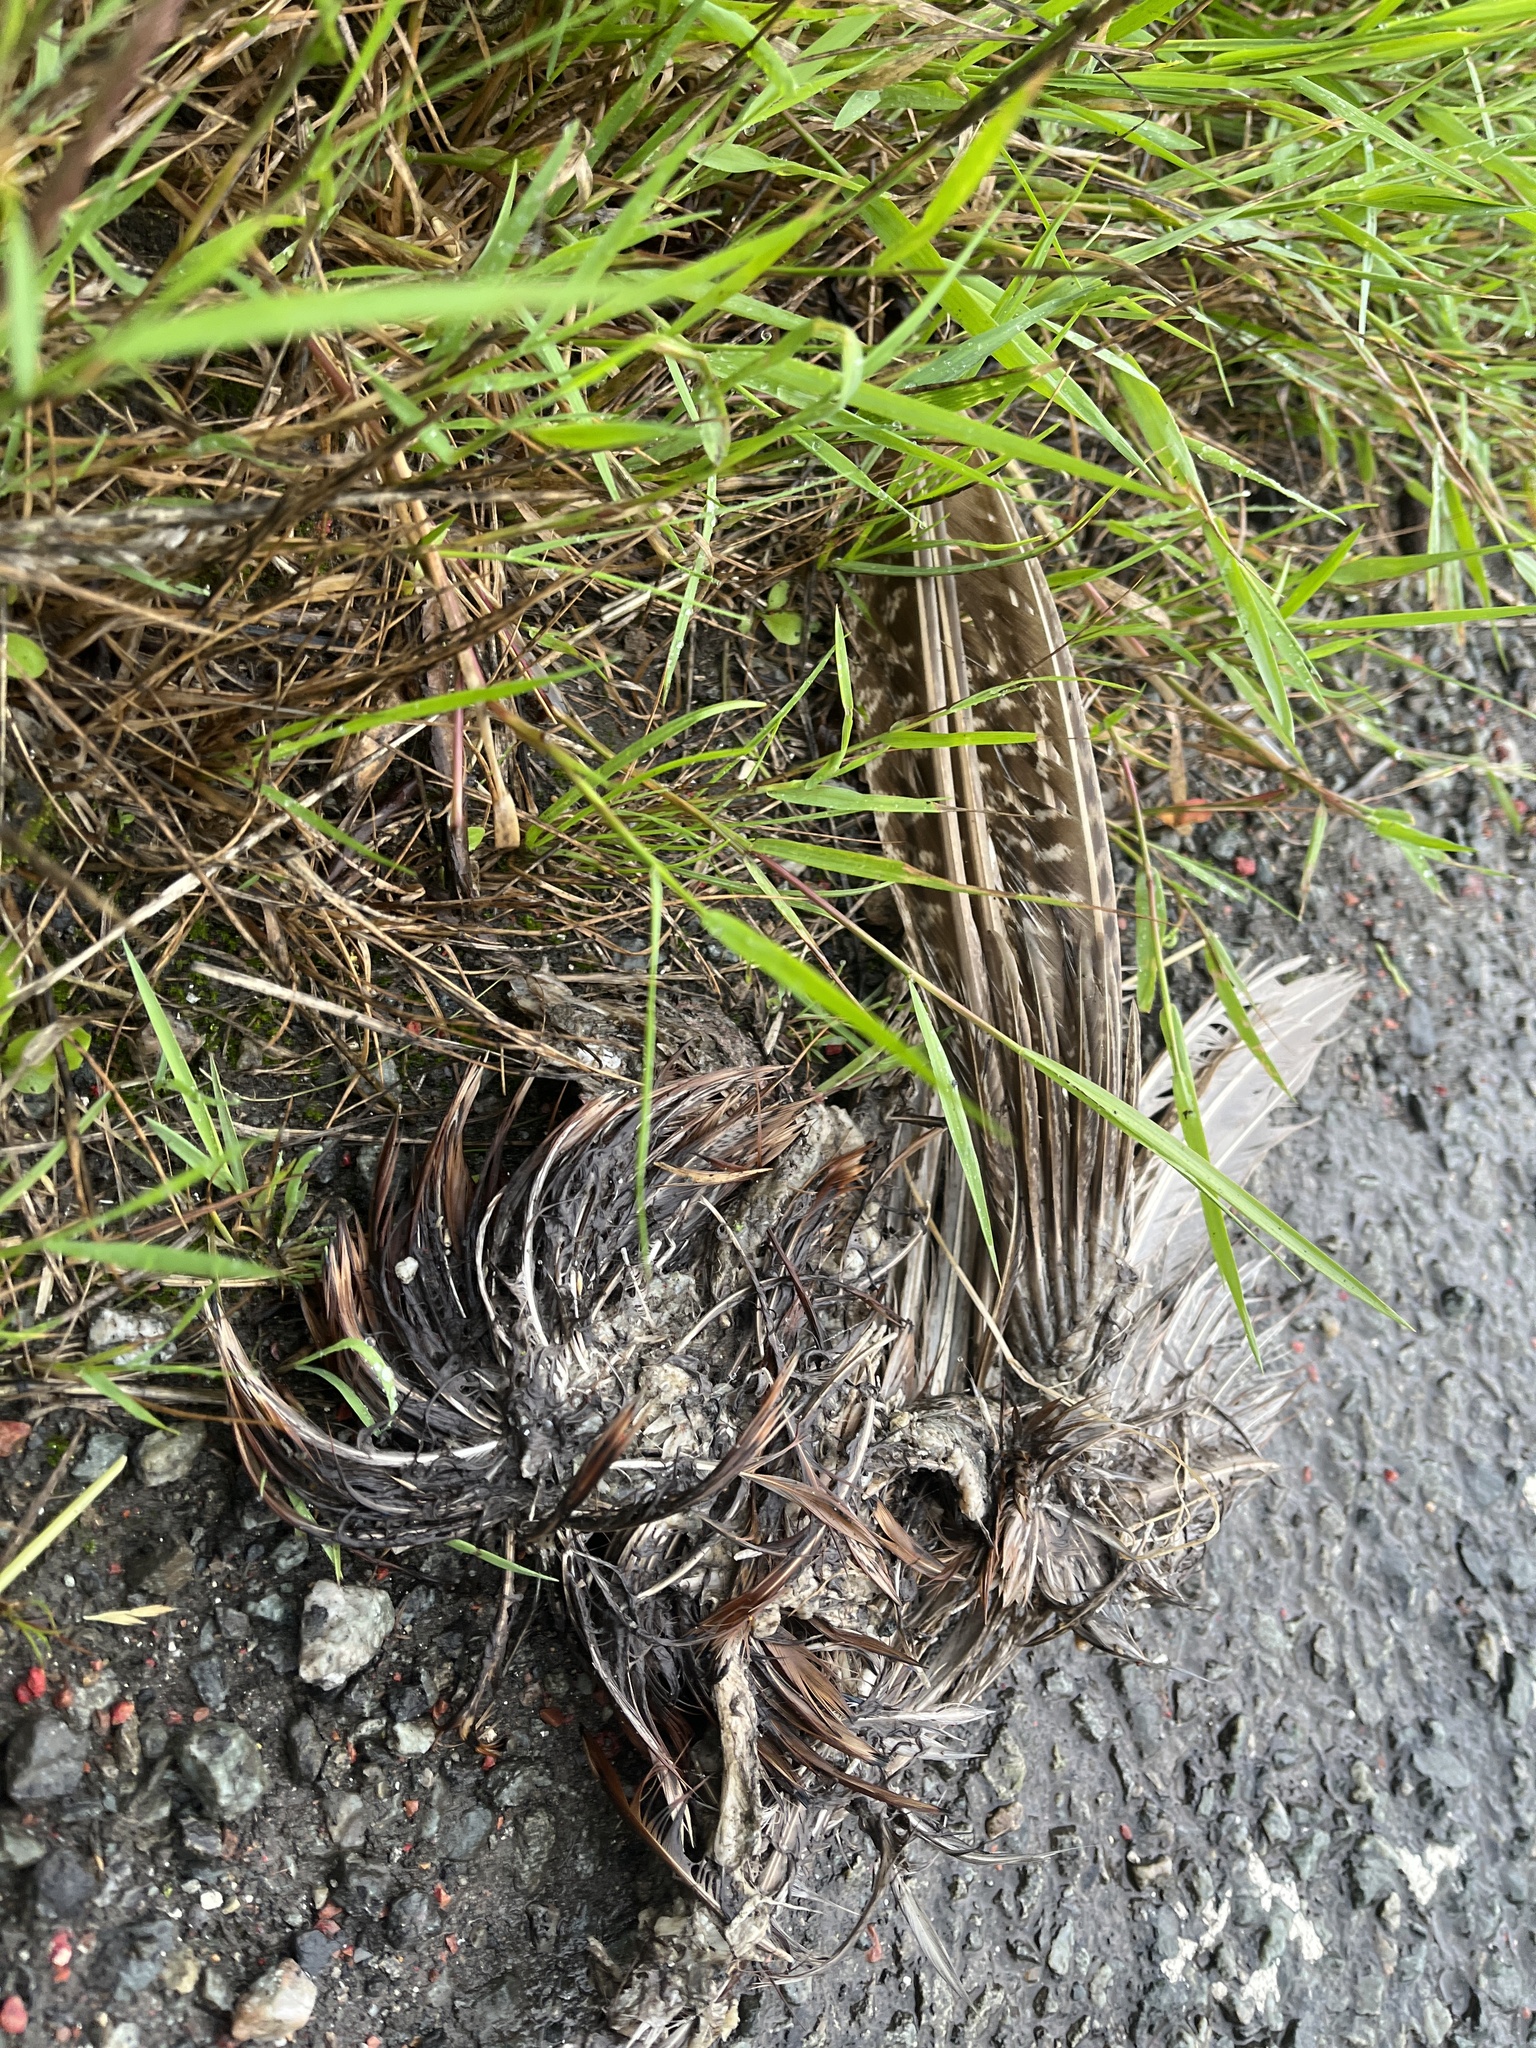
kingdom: Animalia
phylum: Chordata
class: Aves
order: Galliformes
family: Phasianidae
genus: Phasianus
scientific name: Phasianus colchicus
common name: Common pheasant
